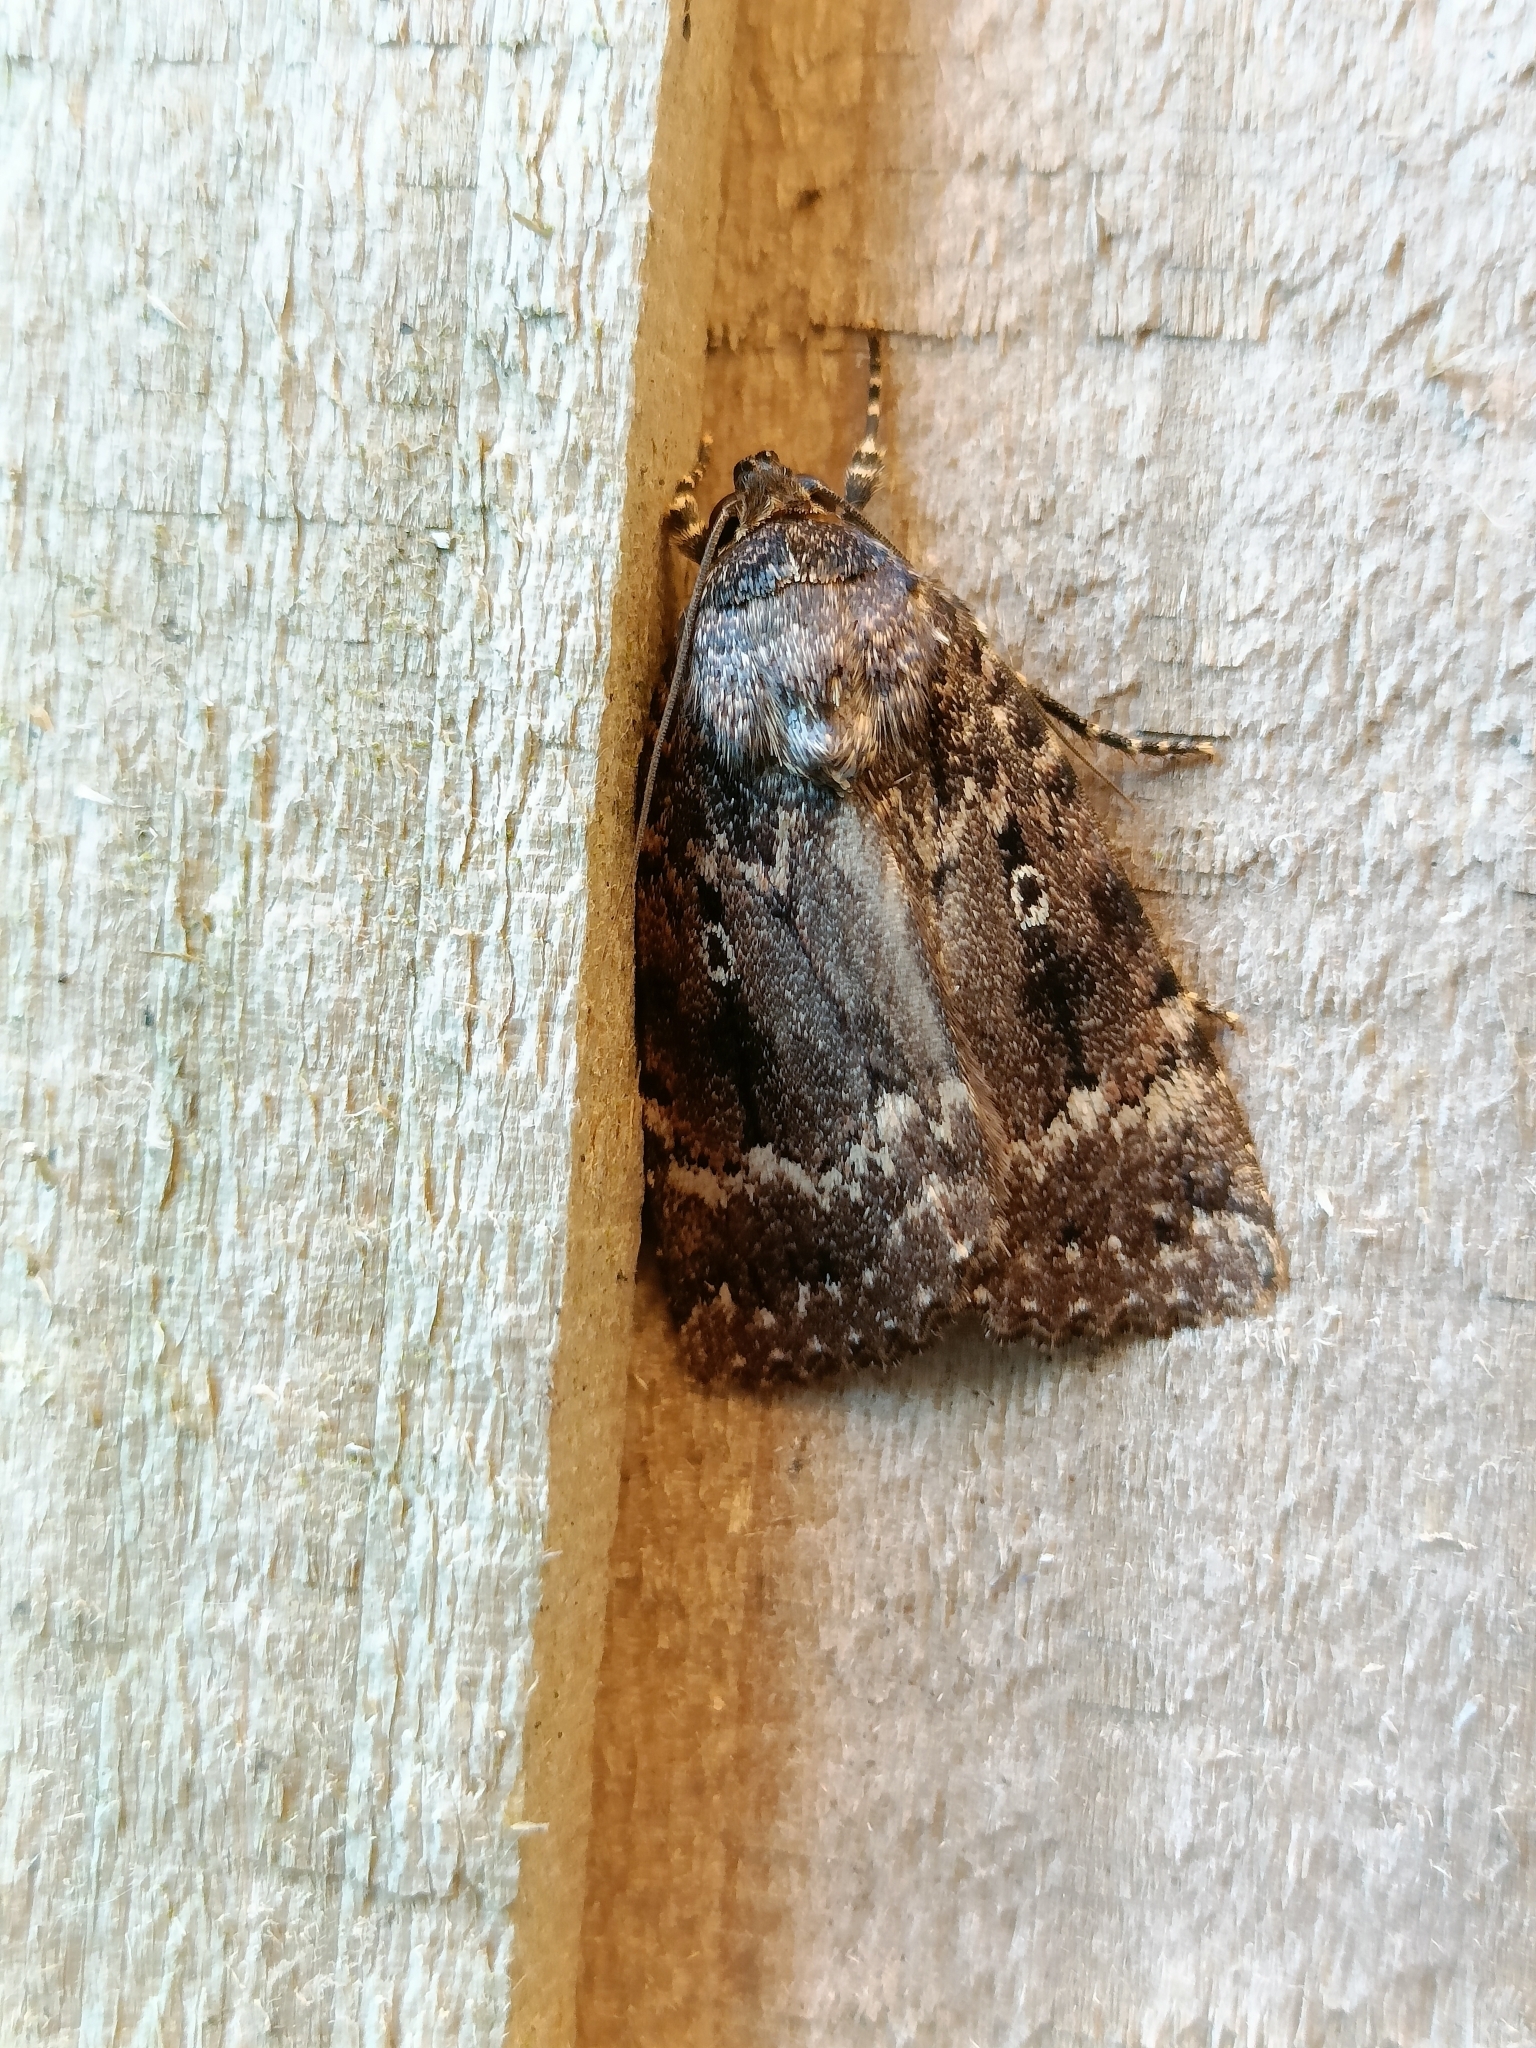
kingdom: Animalia
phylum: Arthropoda
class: Insecta
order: Lepidoptera
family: Noctuidae
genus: Amphipyra
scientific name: Amphipyra pyramidea
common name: Copper underwing
